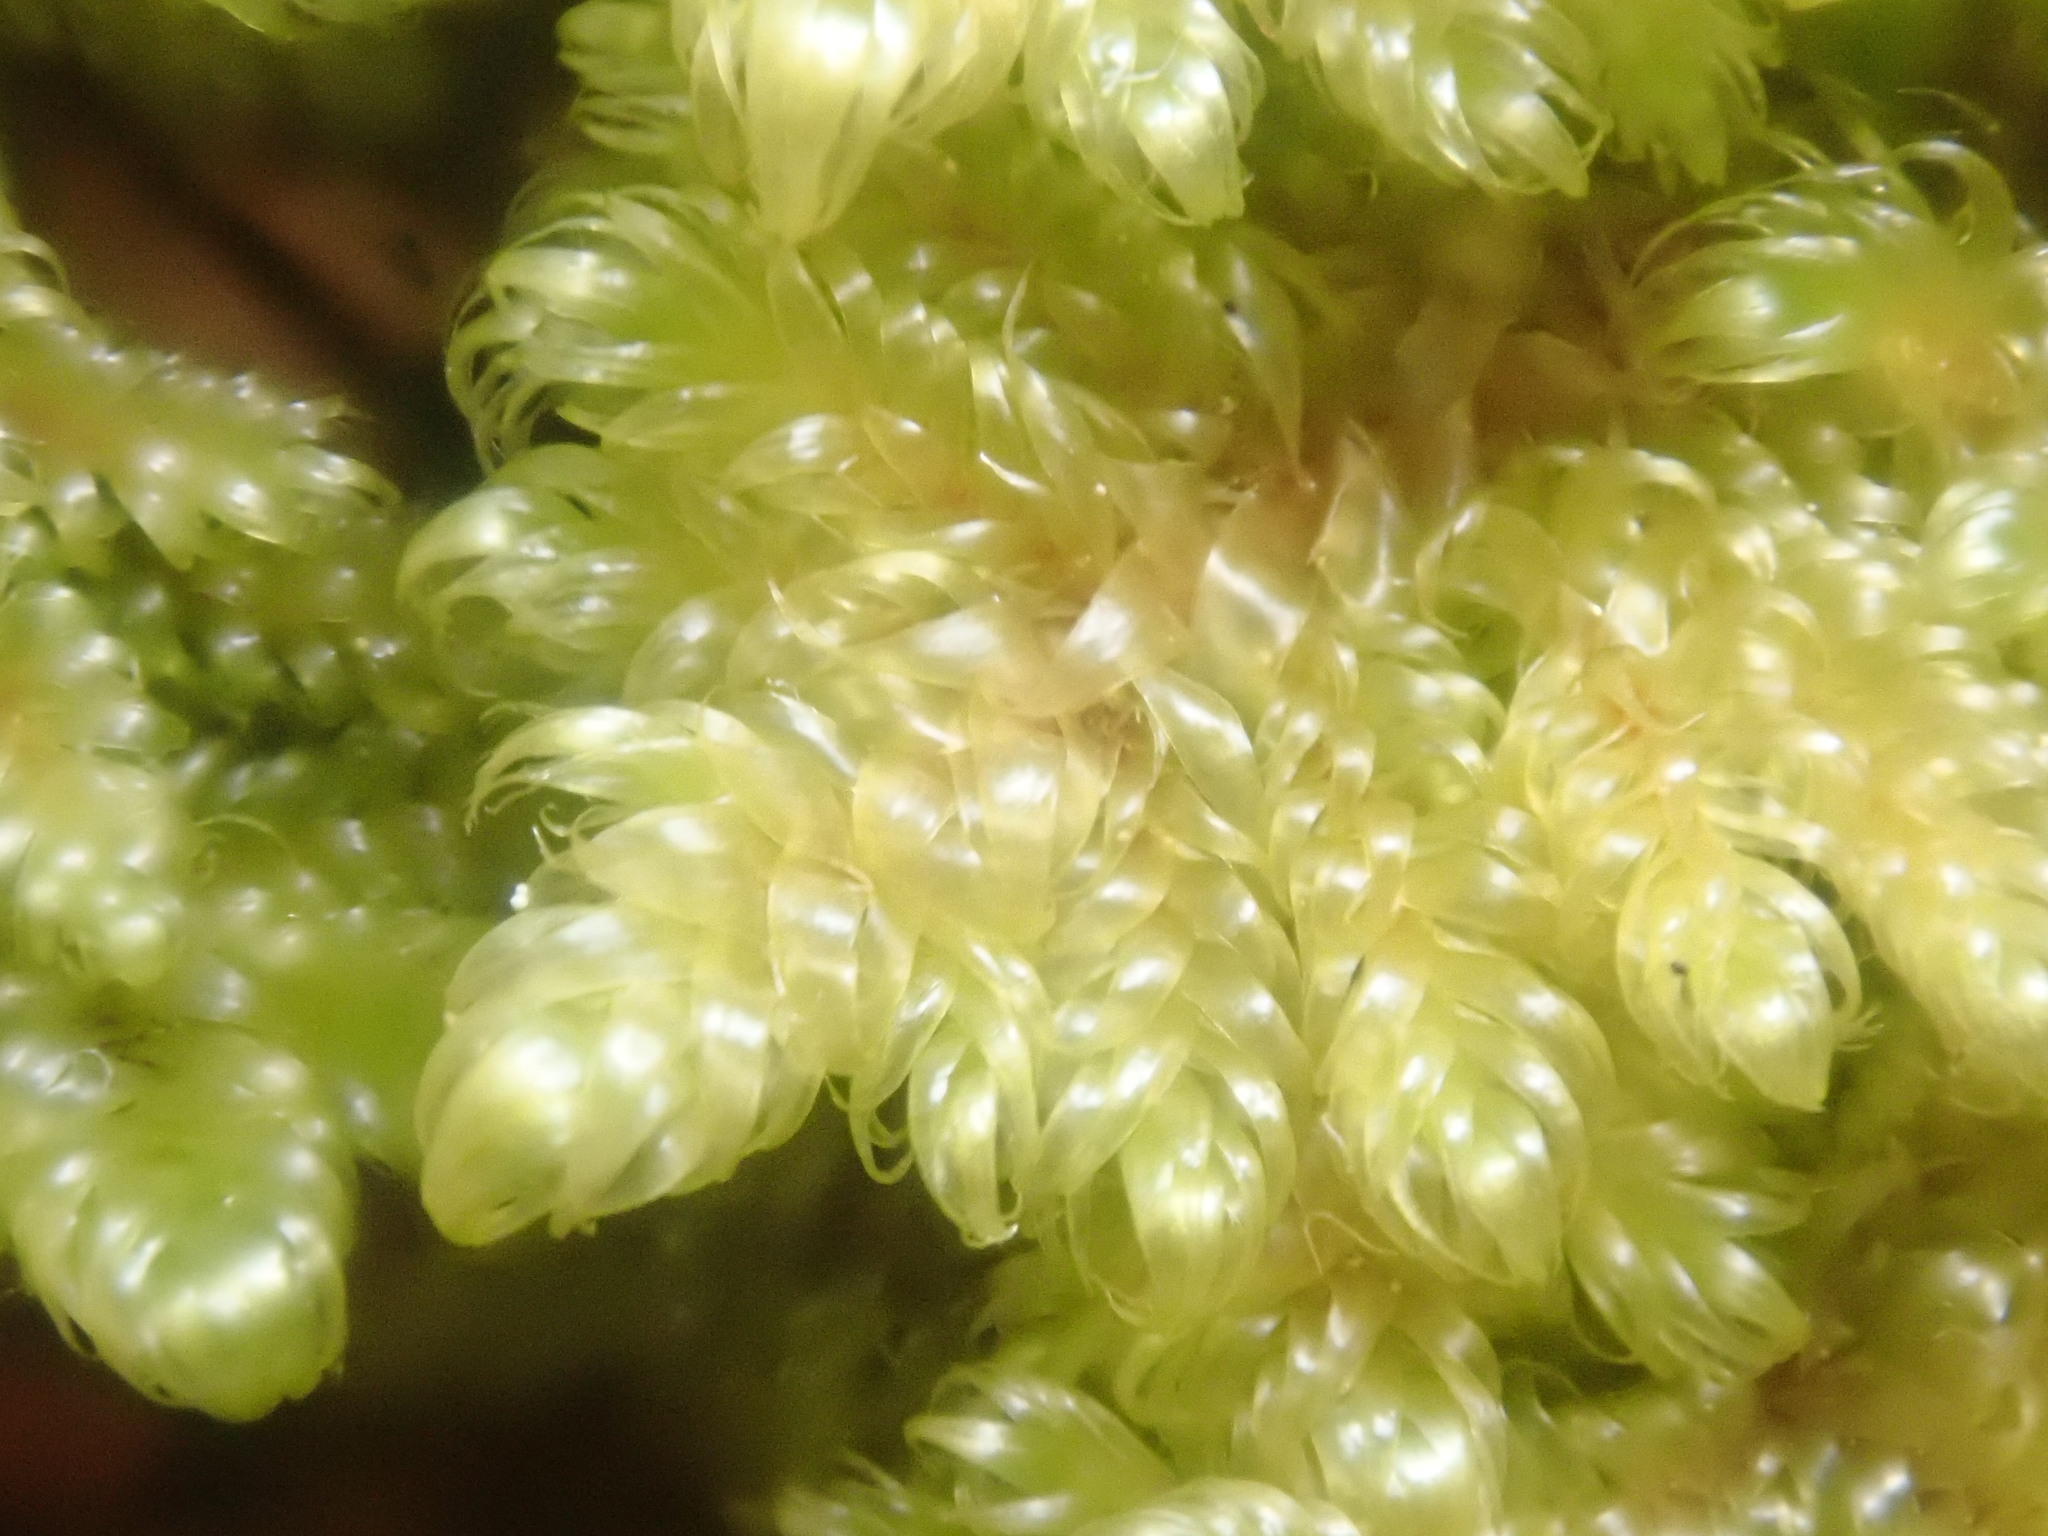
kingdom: Plantae
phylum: Bryophyta
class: Bryopsida
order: Hypnales
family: Callicladiaceae
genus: Callicladium
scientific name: Callicladium imponens
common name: Brocade moss
